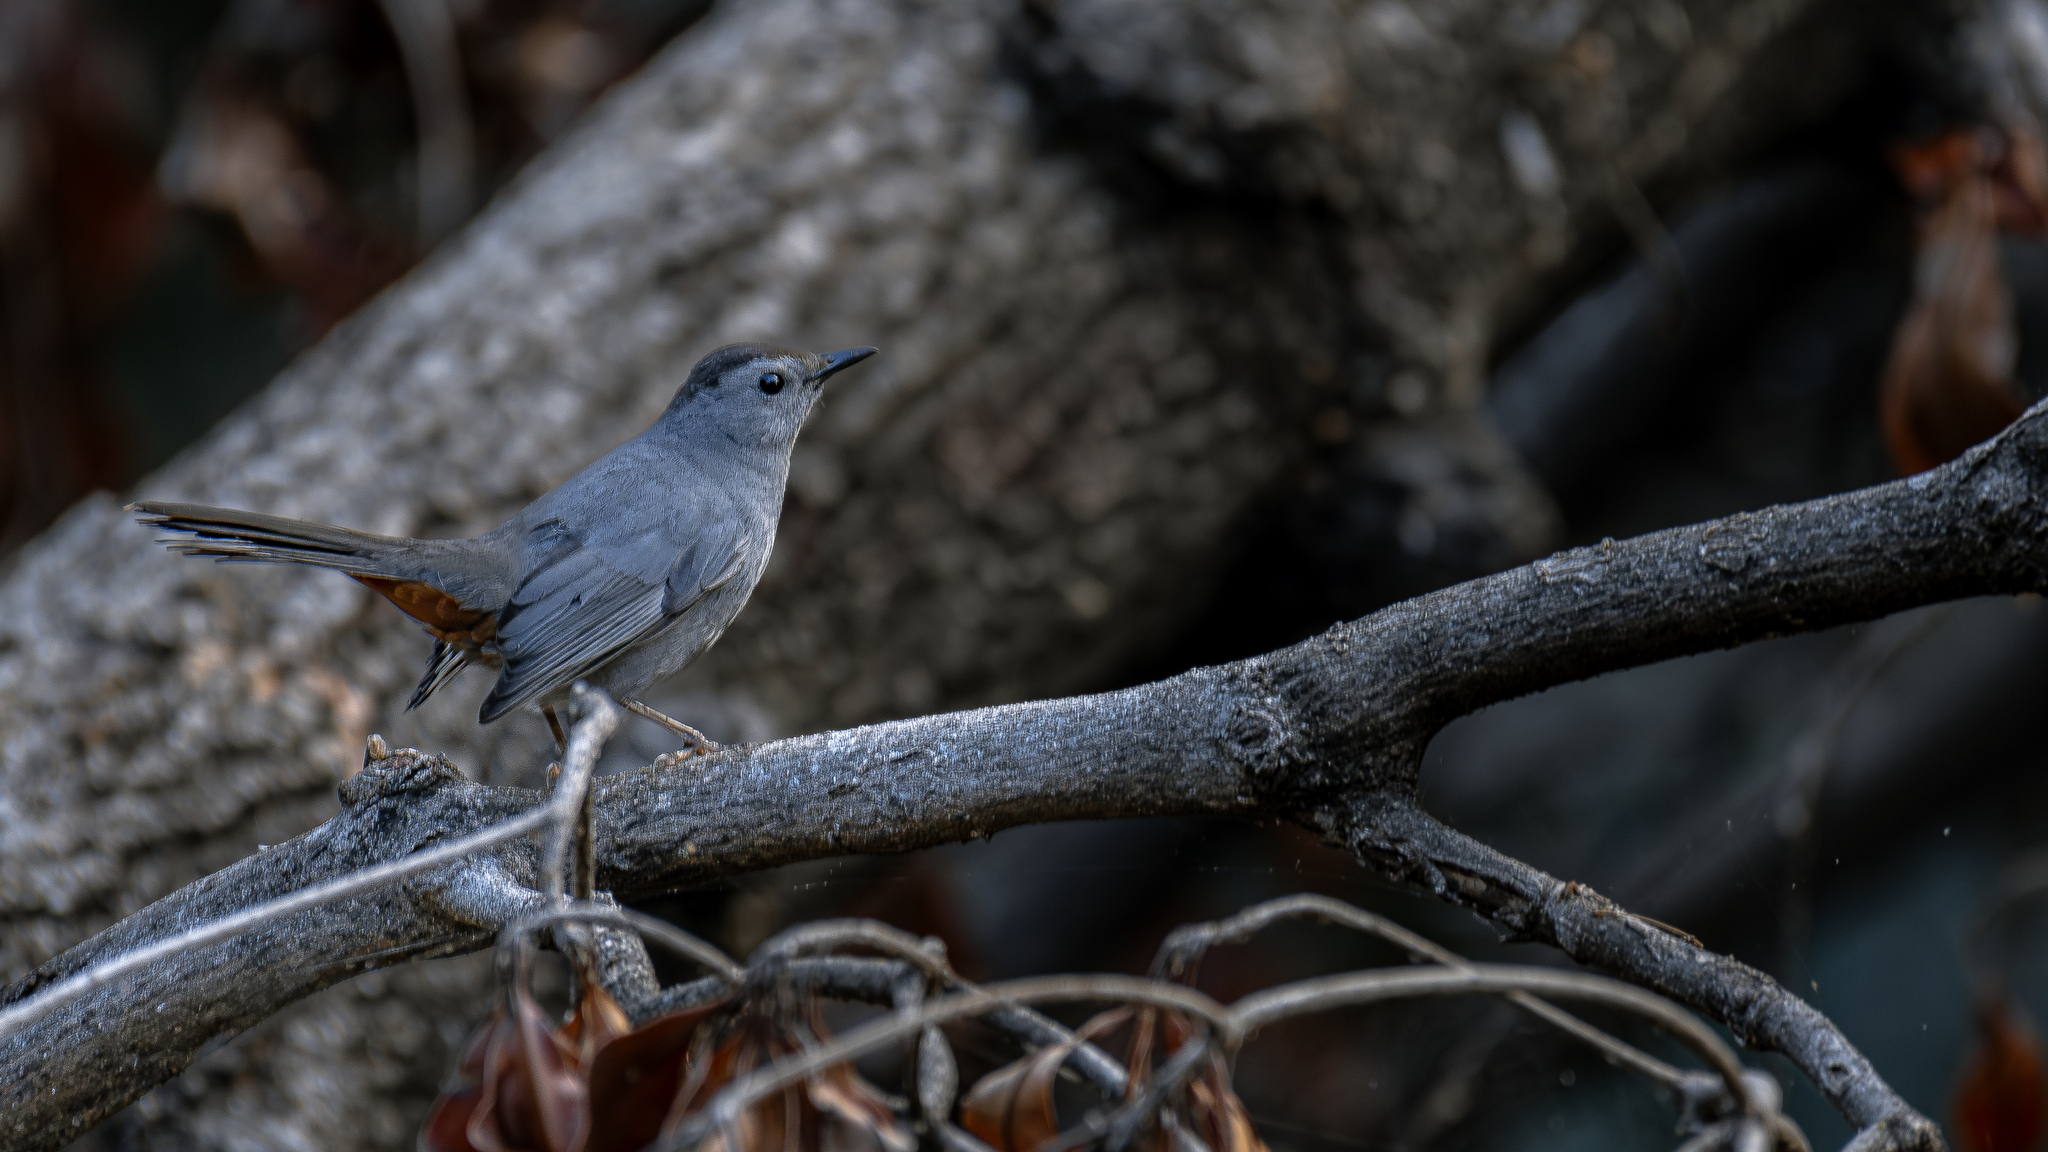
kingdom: Animalia
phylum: Chordata
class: Aves
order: Passeriformes
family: Mimidae
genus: Dumetella
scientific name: Dumetella carolinensis
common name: Gray catbird
